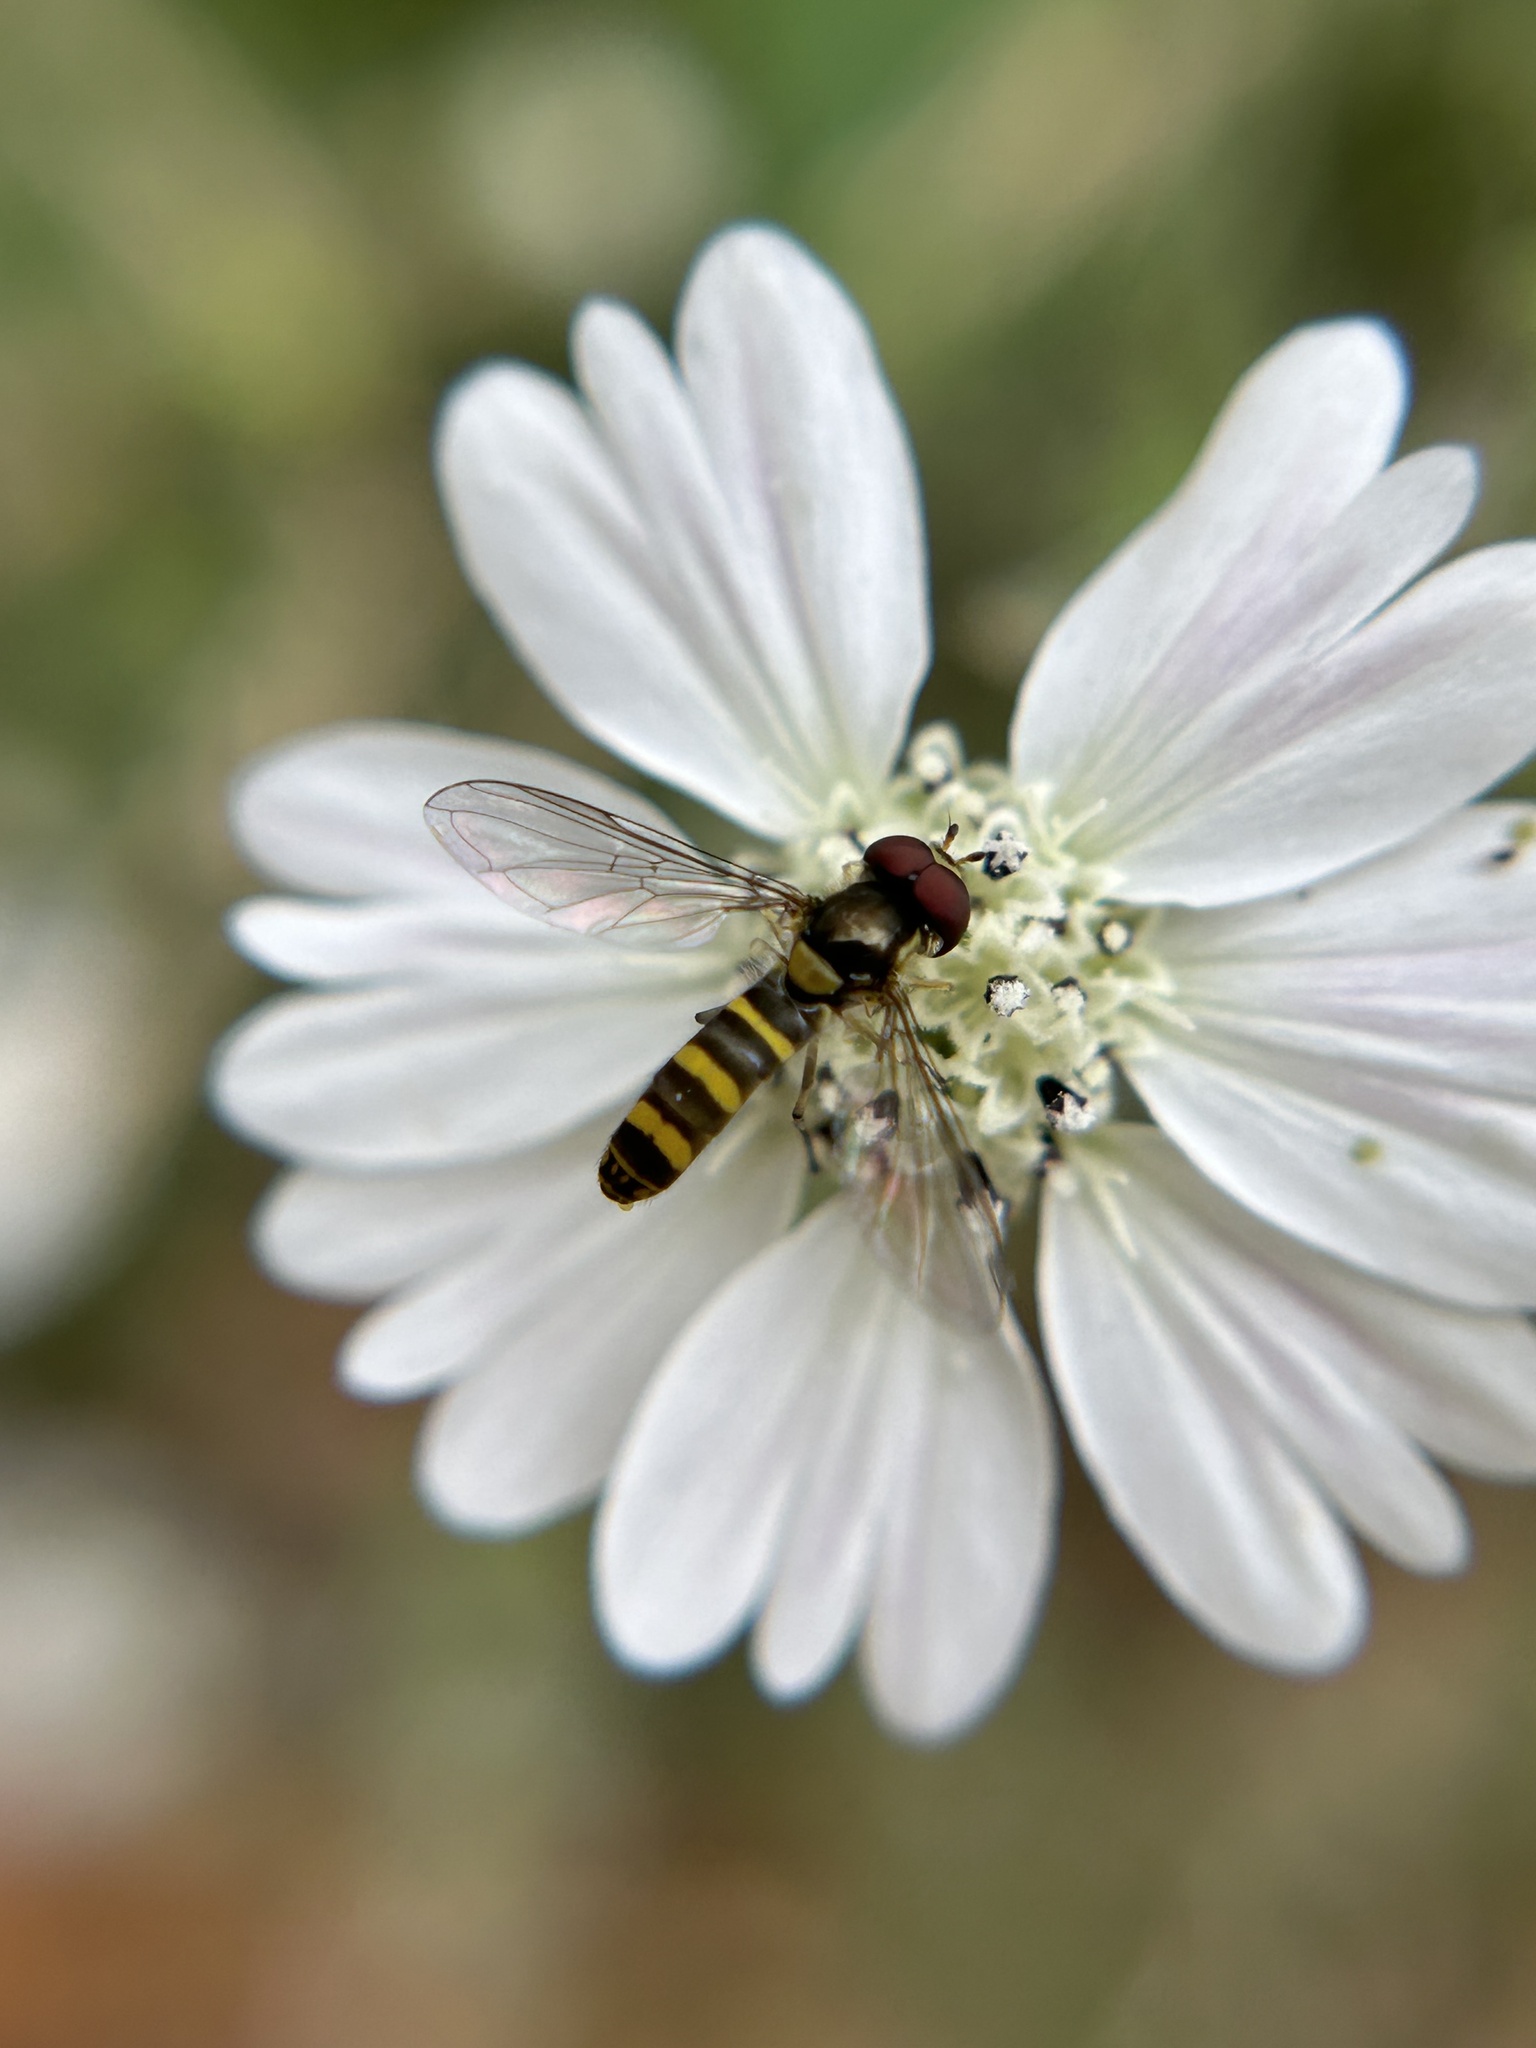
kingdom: Animalia
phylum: Arthropoda
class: Insecta
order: Diptera
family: Syrphidae
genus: Fazia
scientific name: Fazia micrura
